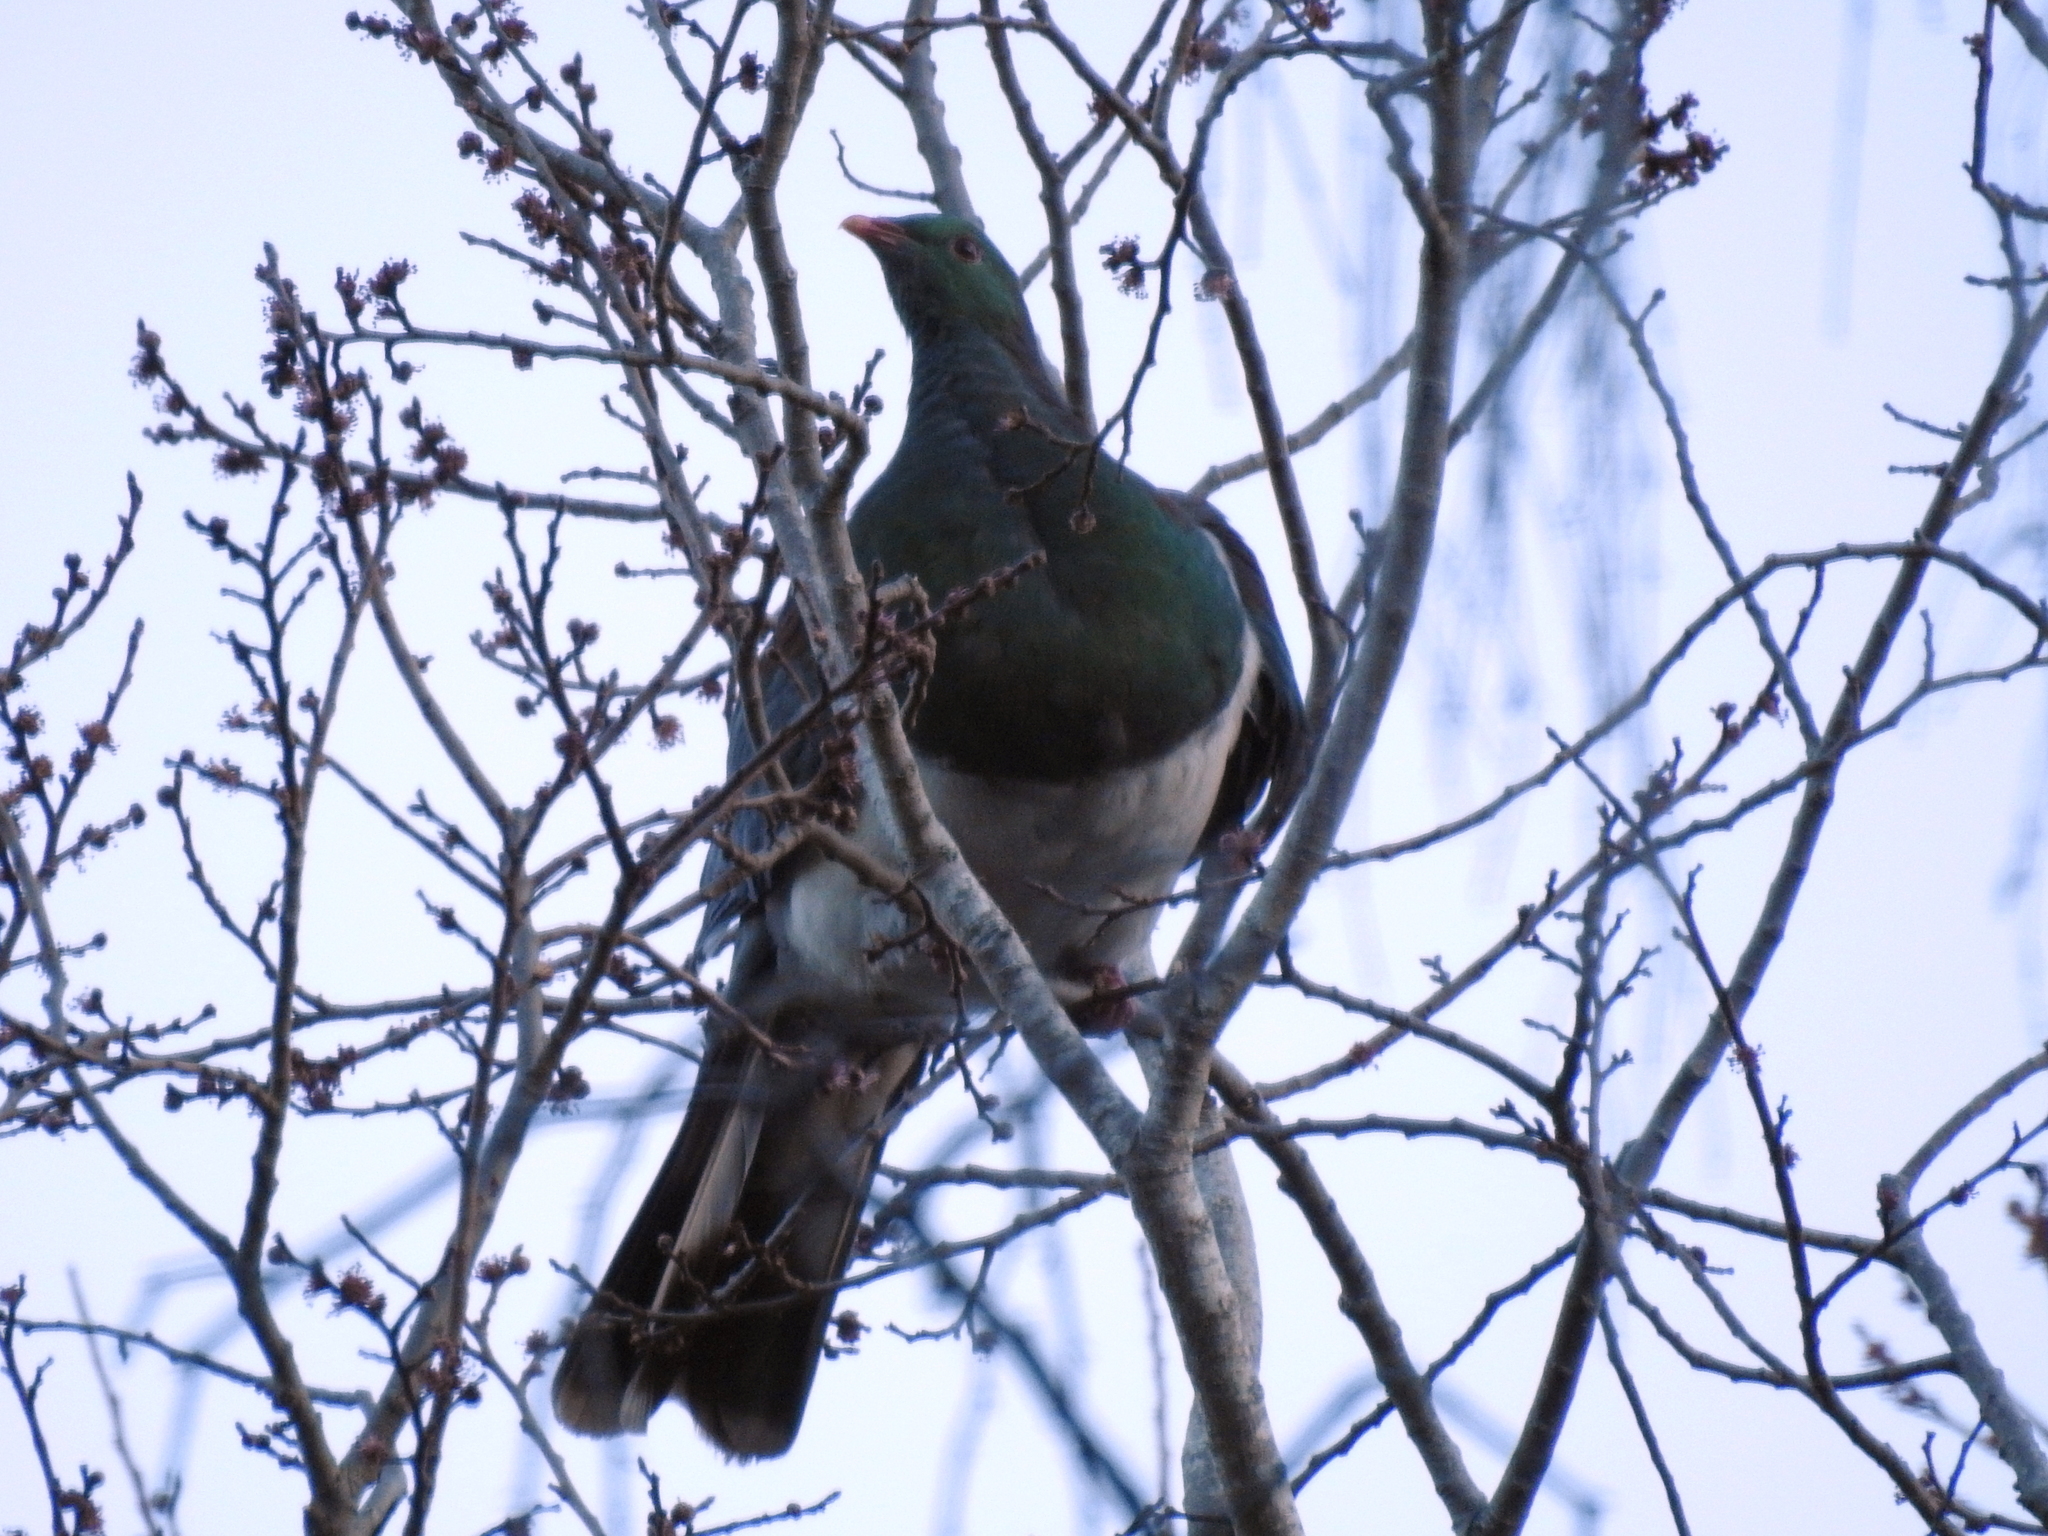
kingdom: Animalia
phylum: Chordata
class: Aves
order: Columbiformes
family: Columbidae
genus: Hemiphaga
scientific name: Hemiphaga novaeseelandiae
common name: New zealand pigeon
